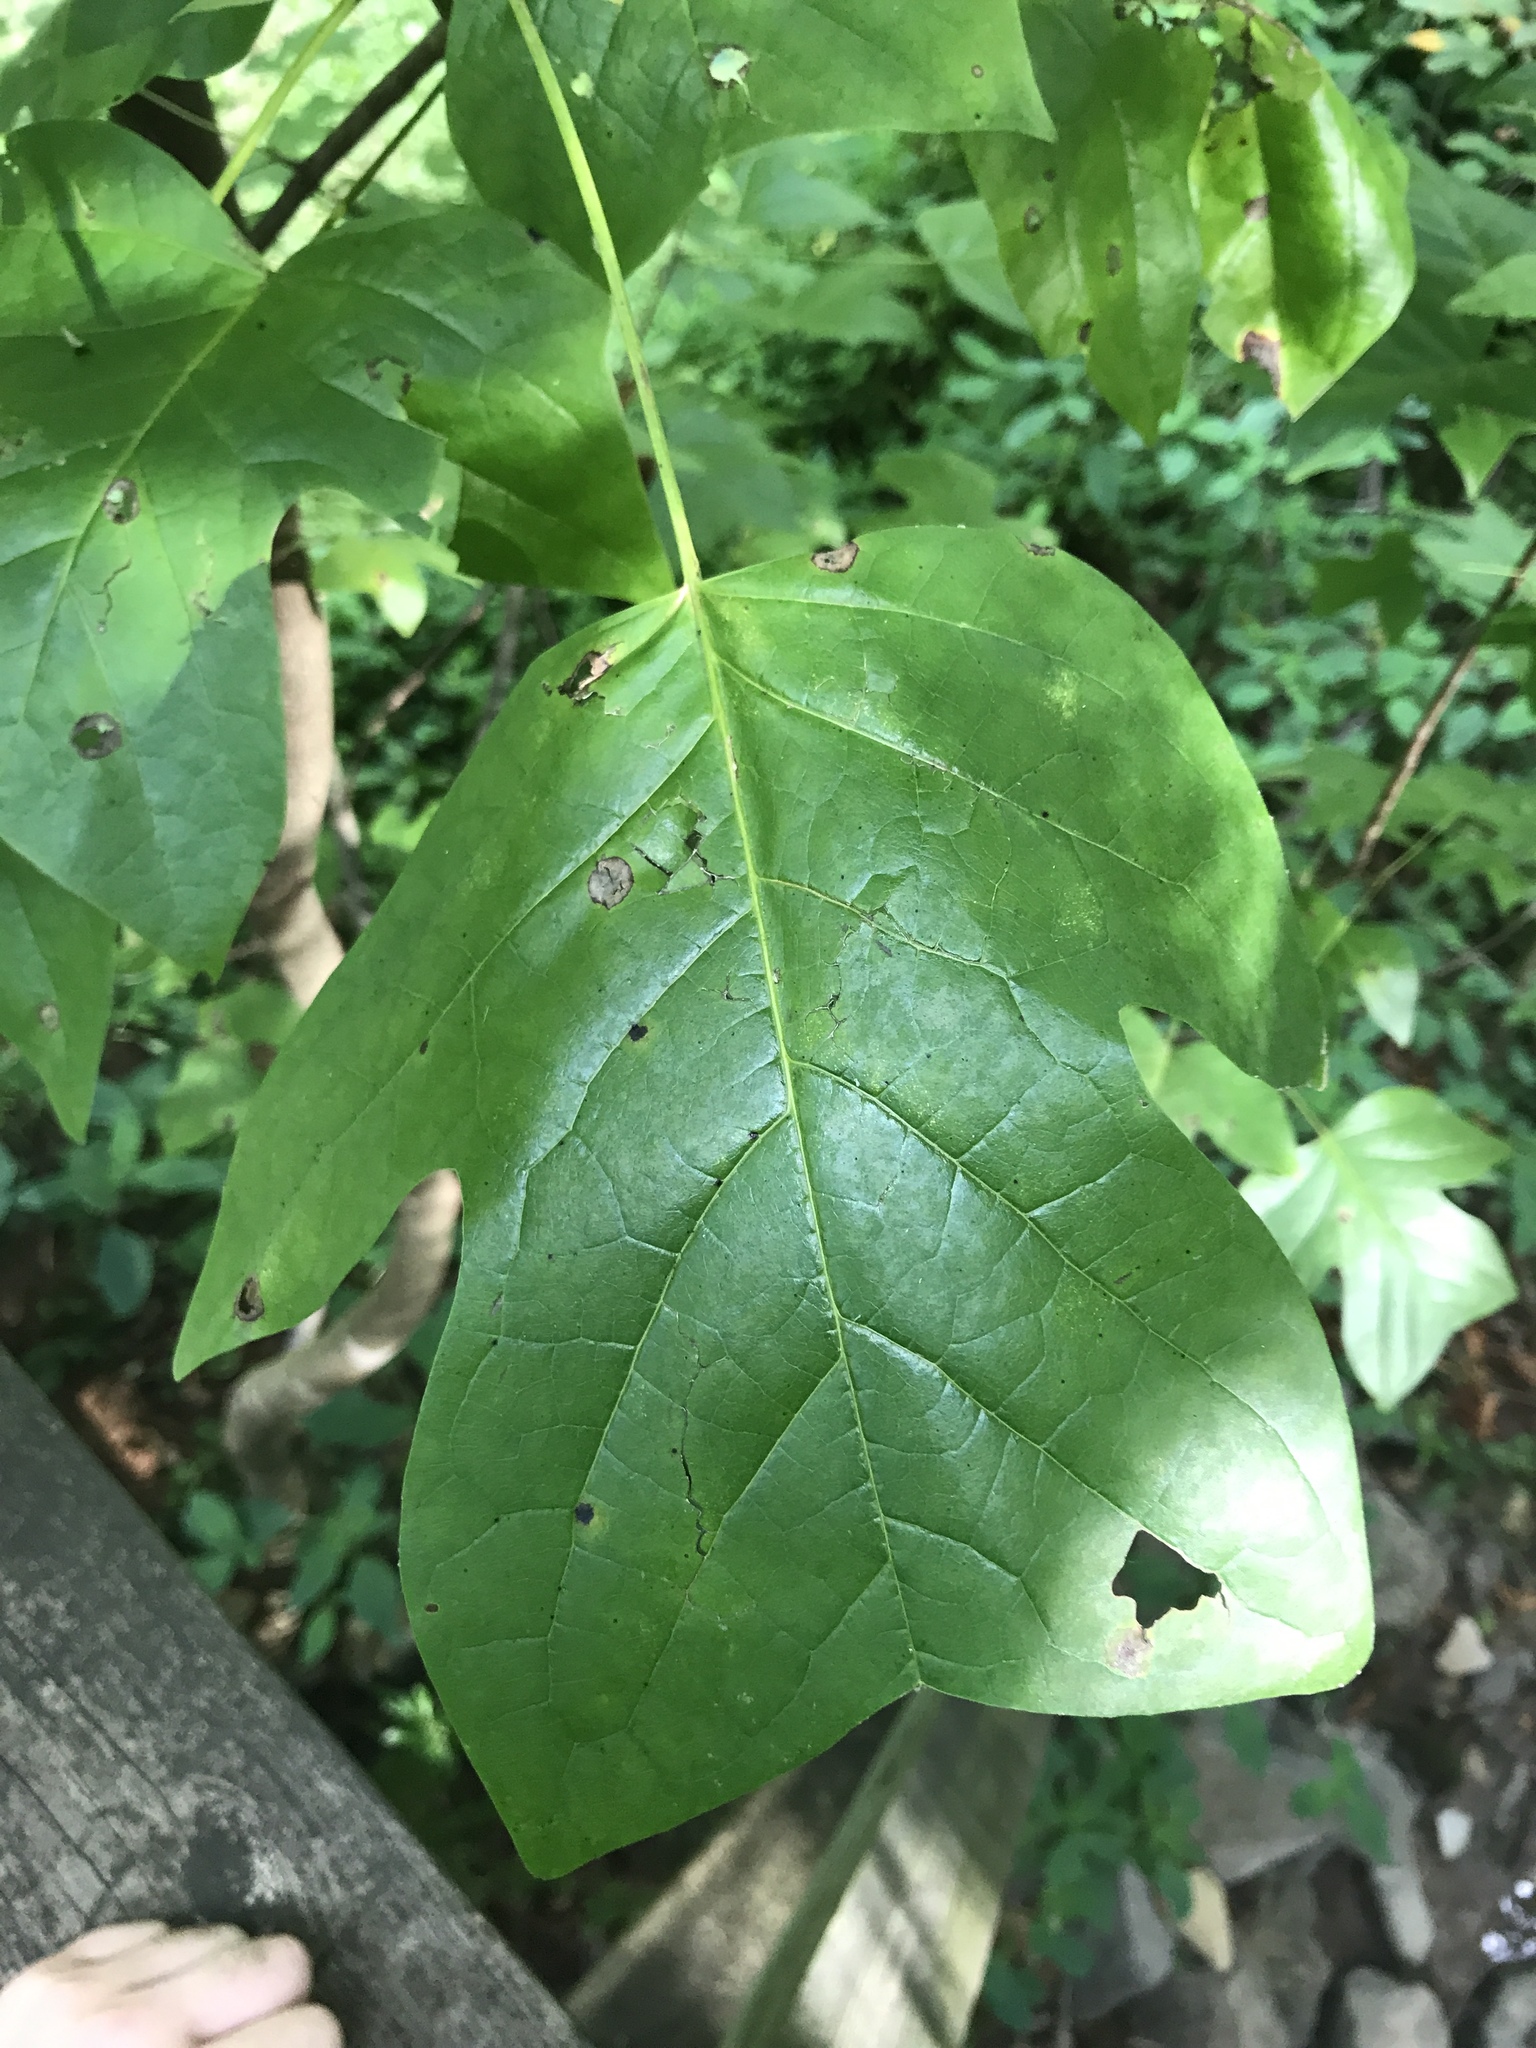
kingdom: Plantae
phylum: Tracheophyta
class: Magnoliopsida
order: Magnoliales
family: Magnoliaceae
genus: Liriodendron
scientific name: Liriodendron tulipifera
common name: Tulip tree
